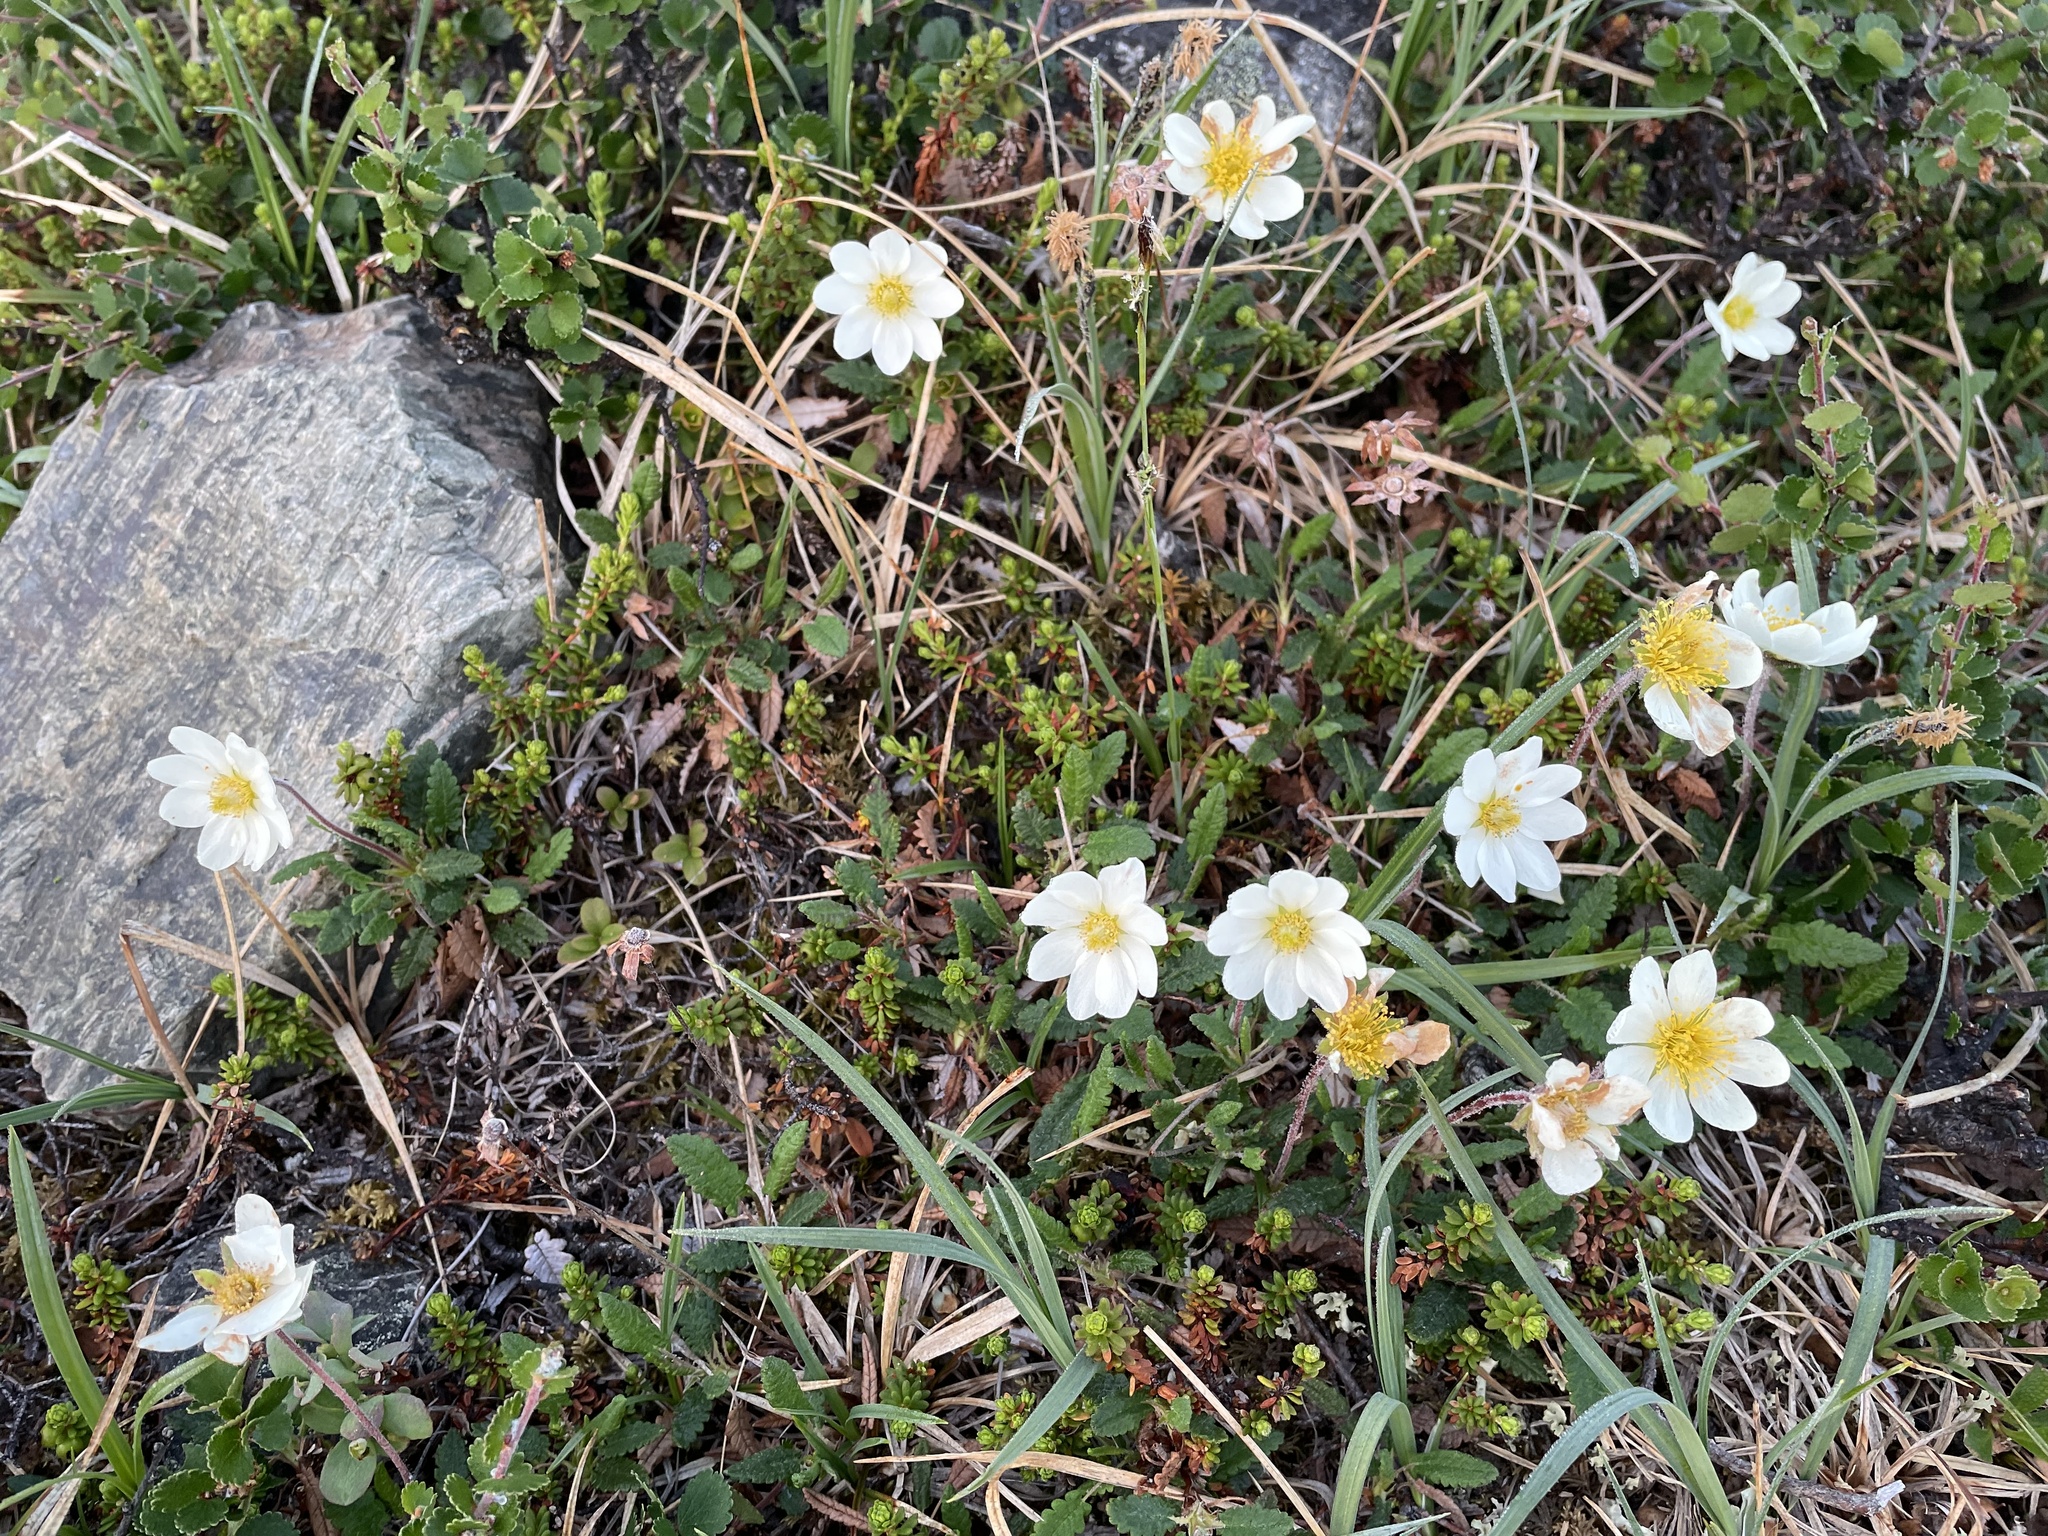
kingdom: Plantae
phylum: Tracheophyta
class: Magnoliopsida
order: Rosales
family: Rosaceae
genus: Dryas
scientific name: Dryas octopetala
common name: Eight-petal mountain-avens
